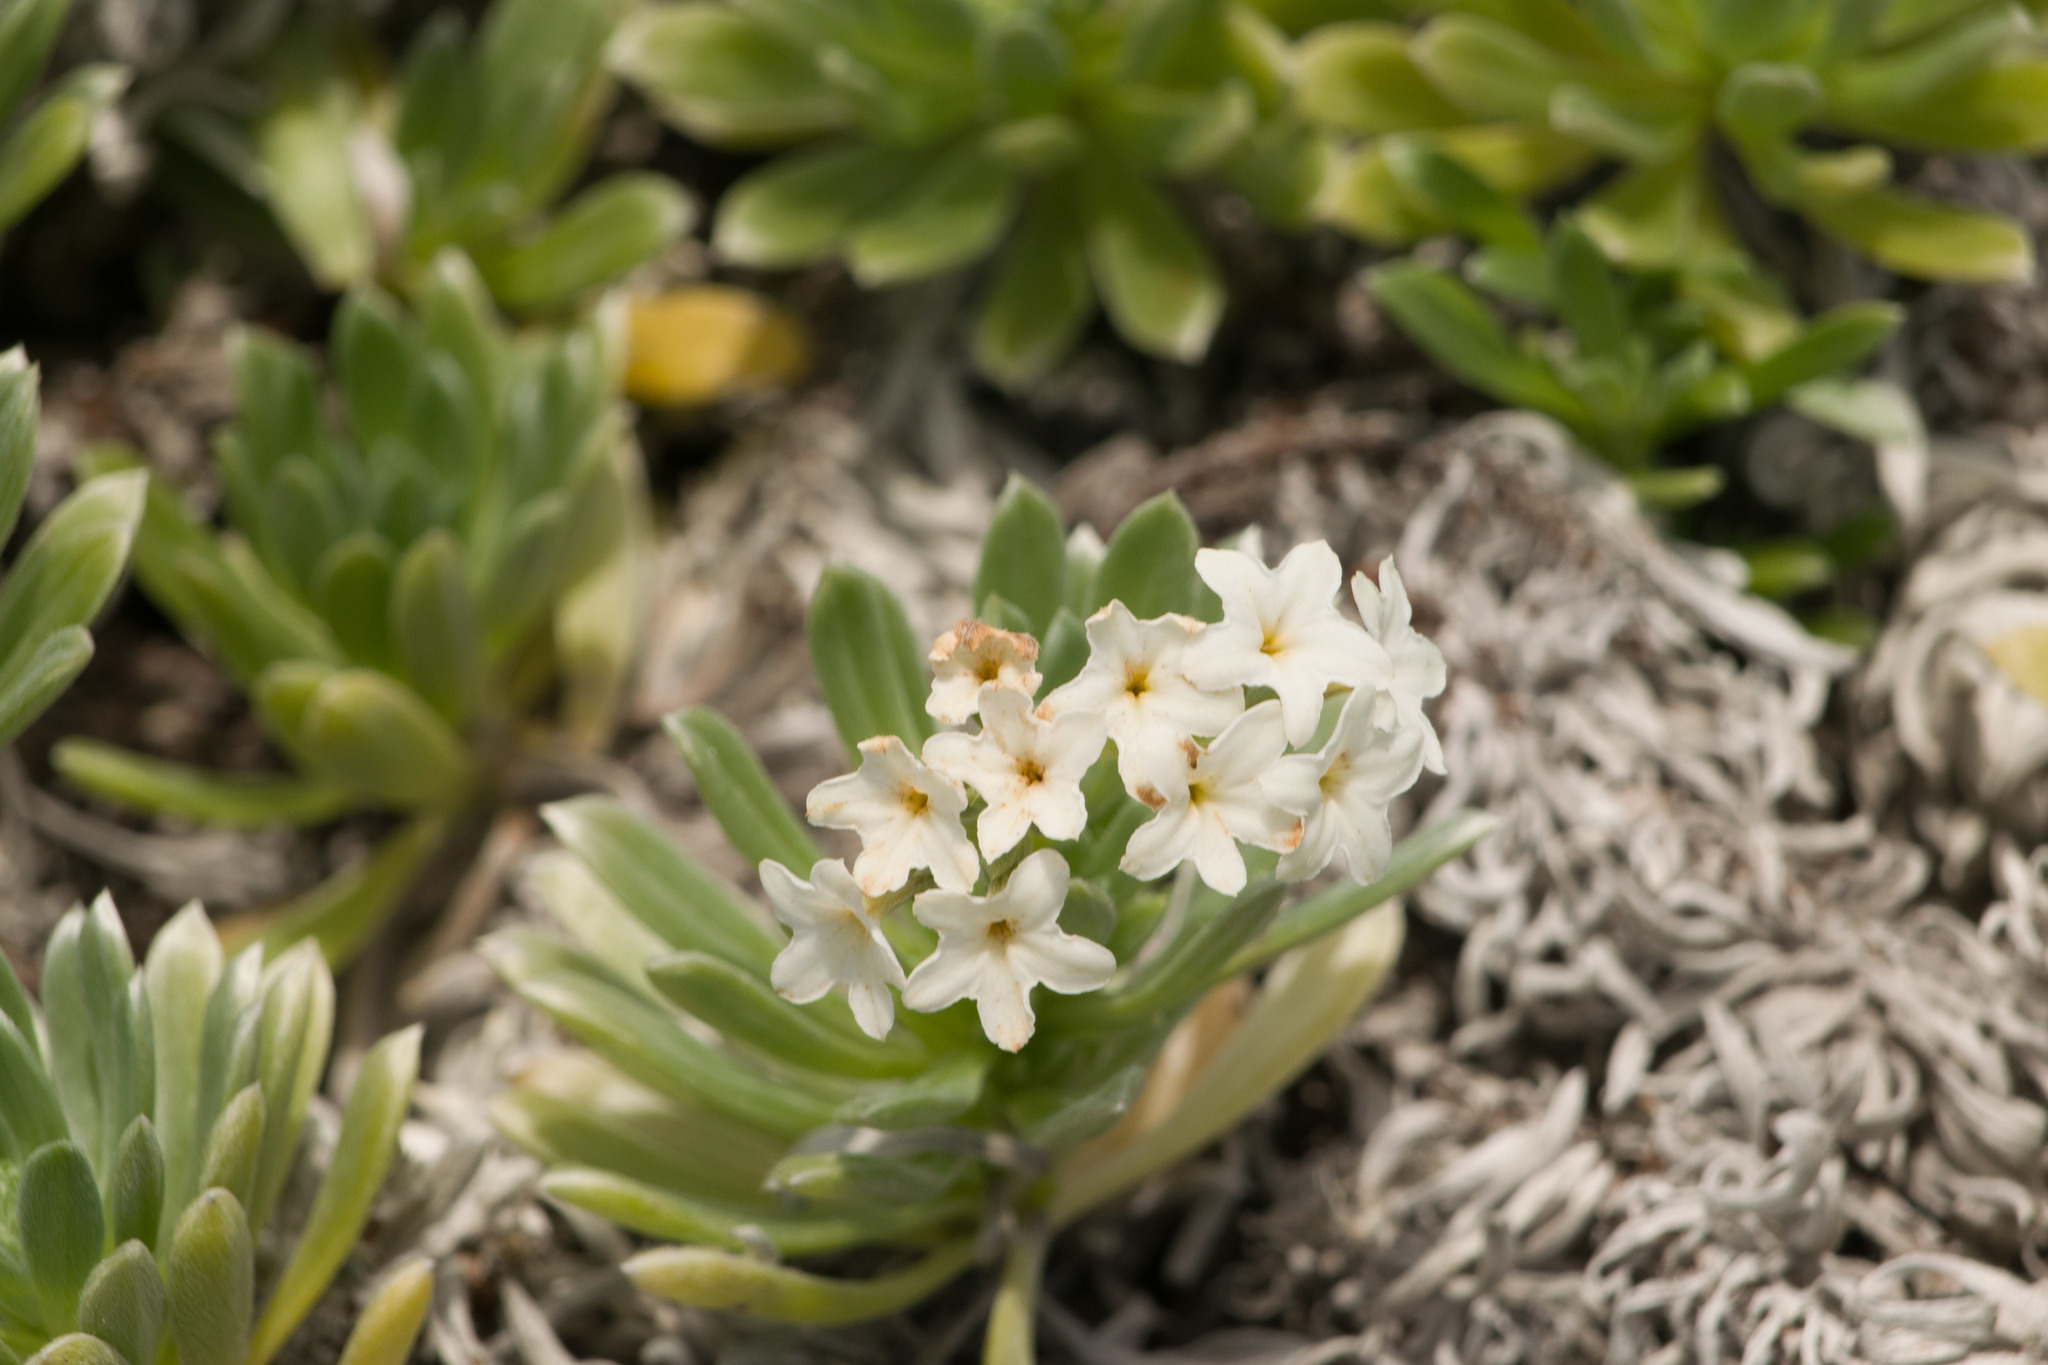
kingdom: Plantae
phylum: Tracheophyta
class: Magnoliopsida
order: Boraginales
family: Heliotropiaceae
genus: Heliotropium
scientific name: Heliotropium anomalum
